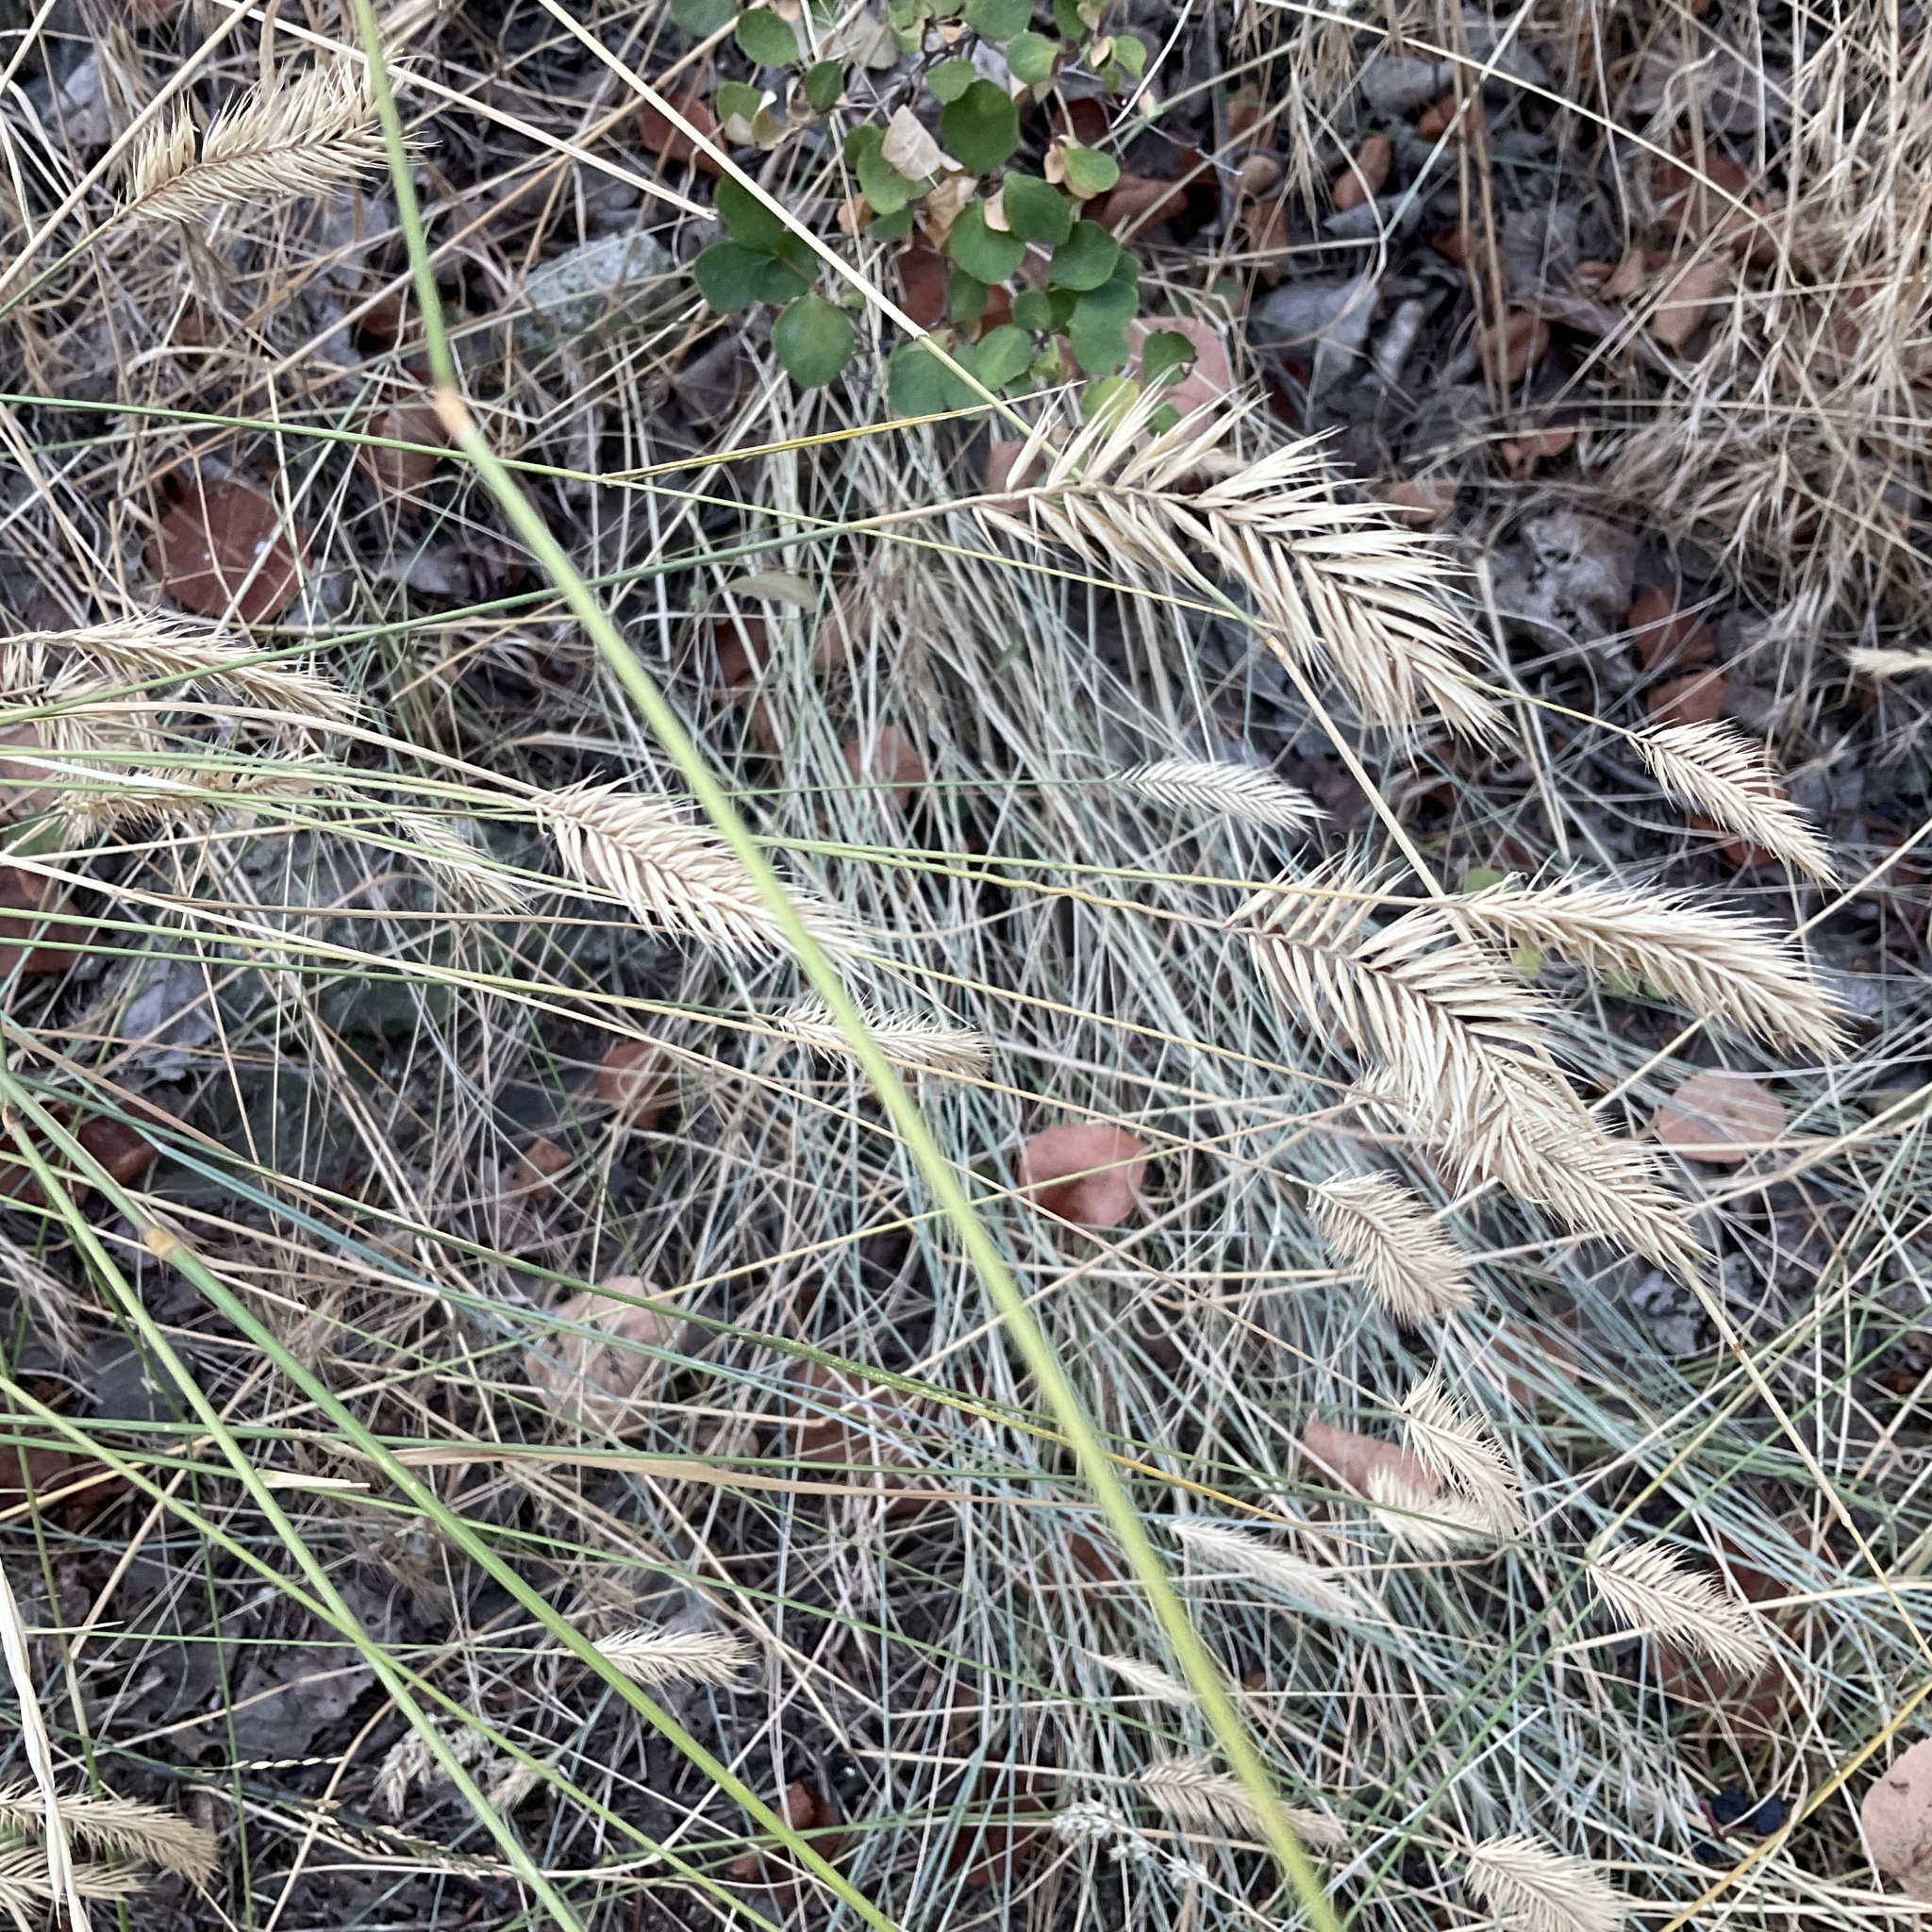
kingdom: Plantae
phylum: Tracheophyta
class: Liliopsida
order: Poales
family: Poaceae
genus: Agropyron
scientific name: Agropyron cristatum
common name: Crested wheatgrass
